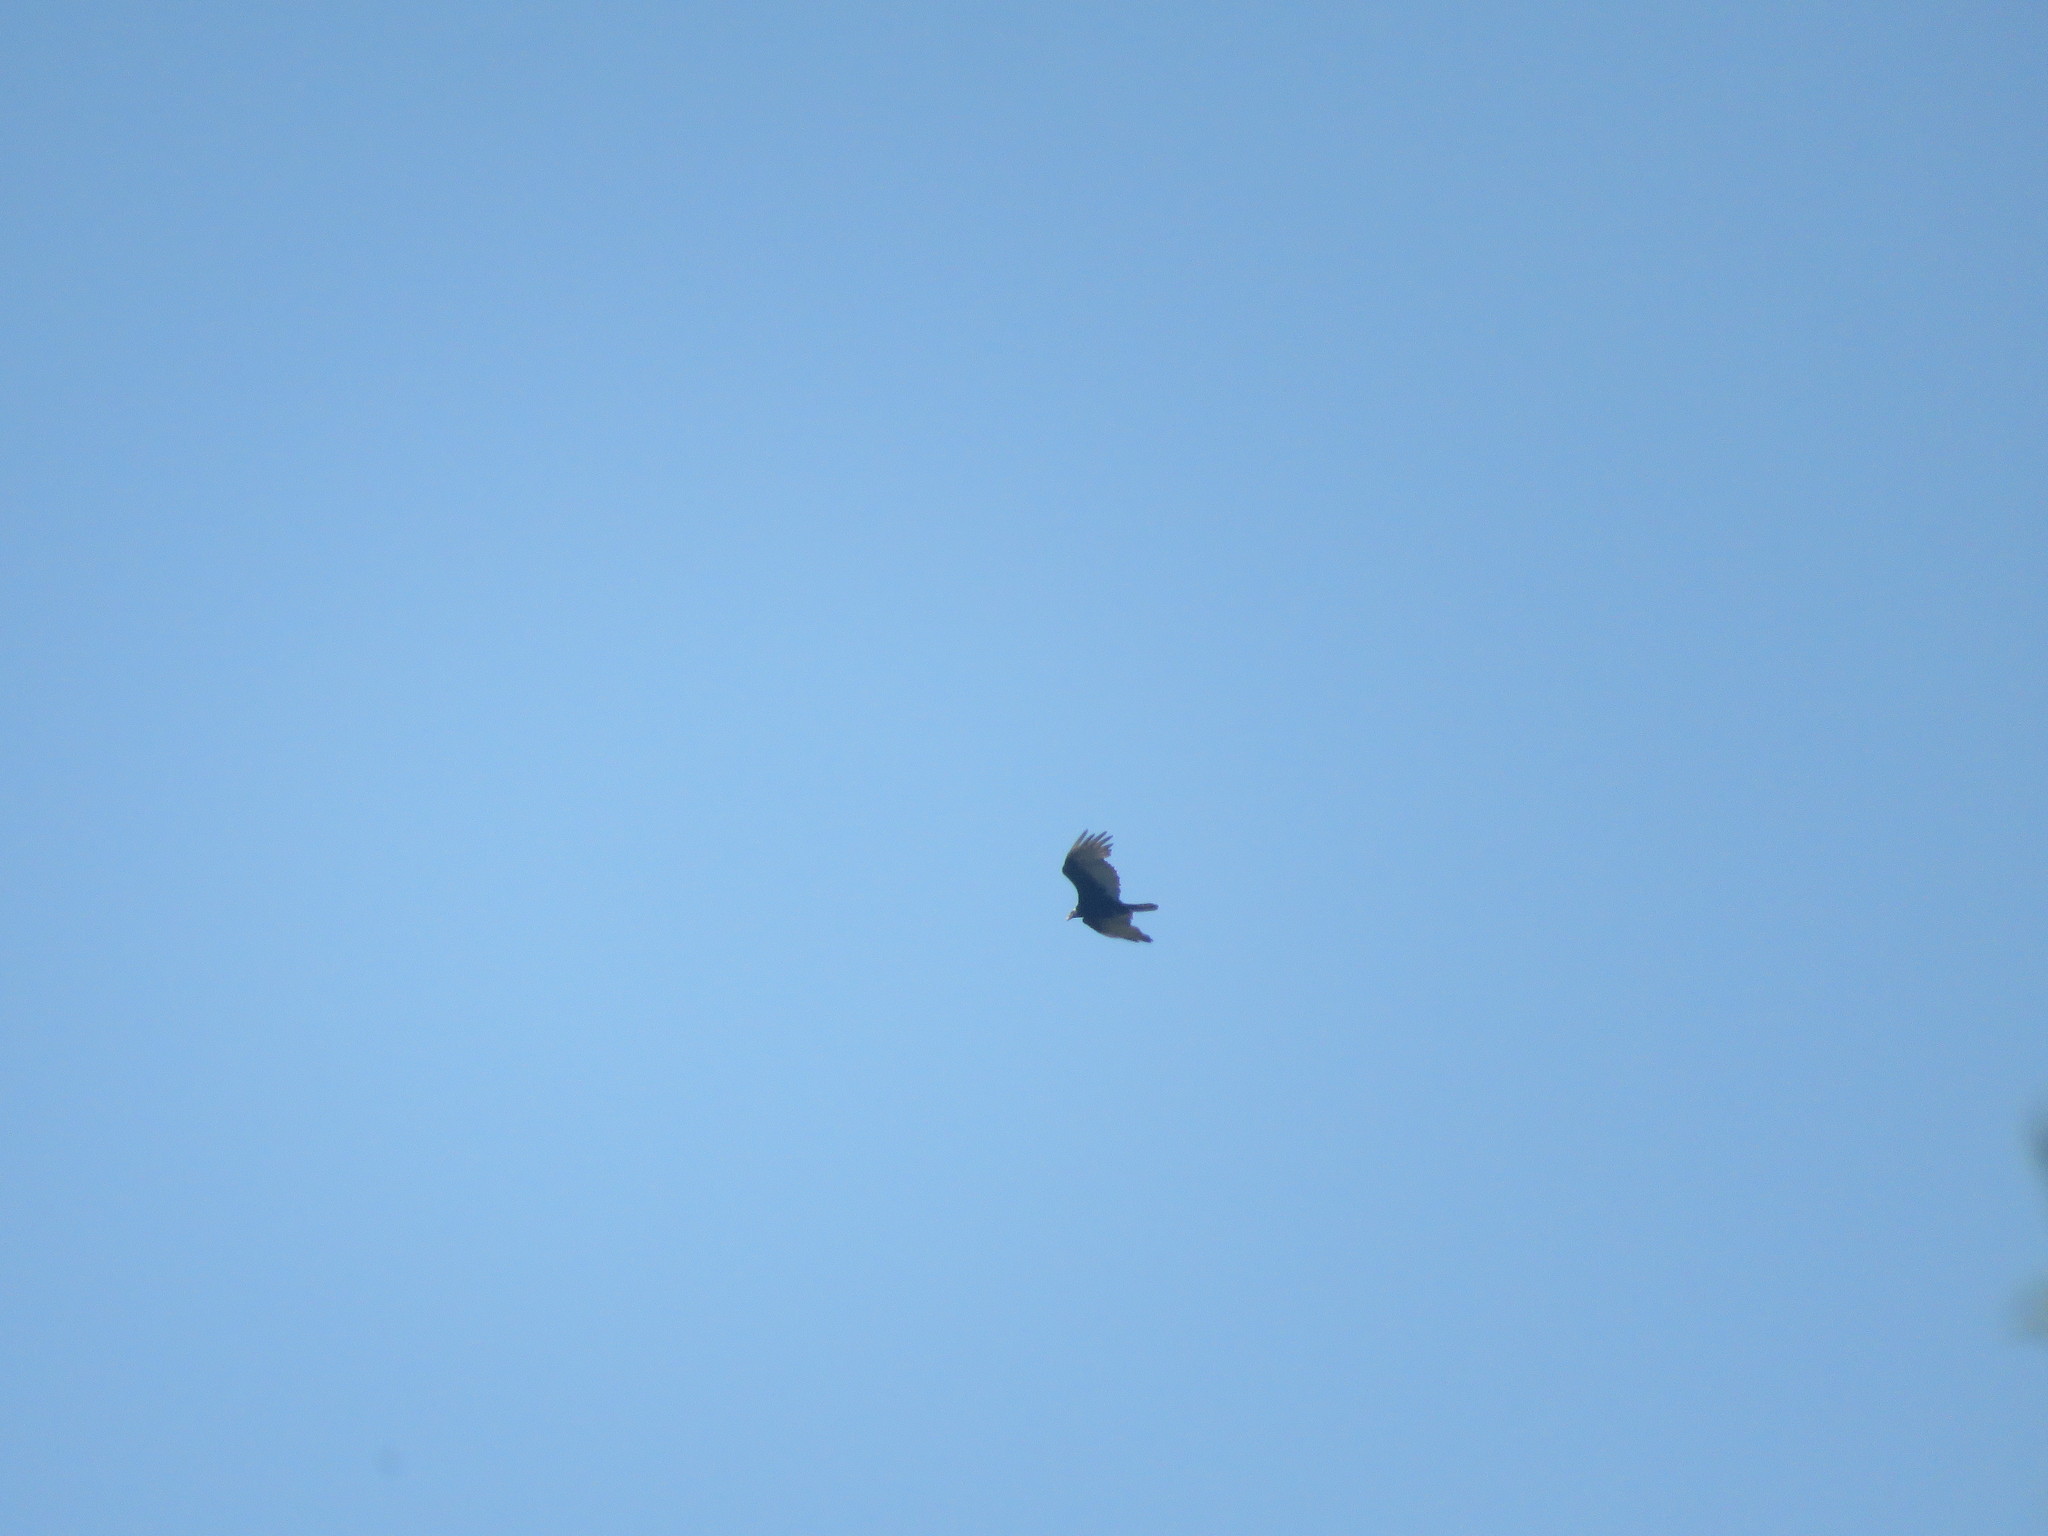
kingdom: Animalia
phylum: Chordata
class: Aves
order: Accipitriformes
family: Cathartidae
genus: Cathartes
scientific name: Cathartes aura
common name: Turkey vulture
